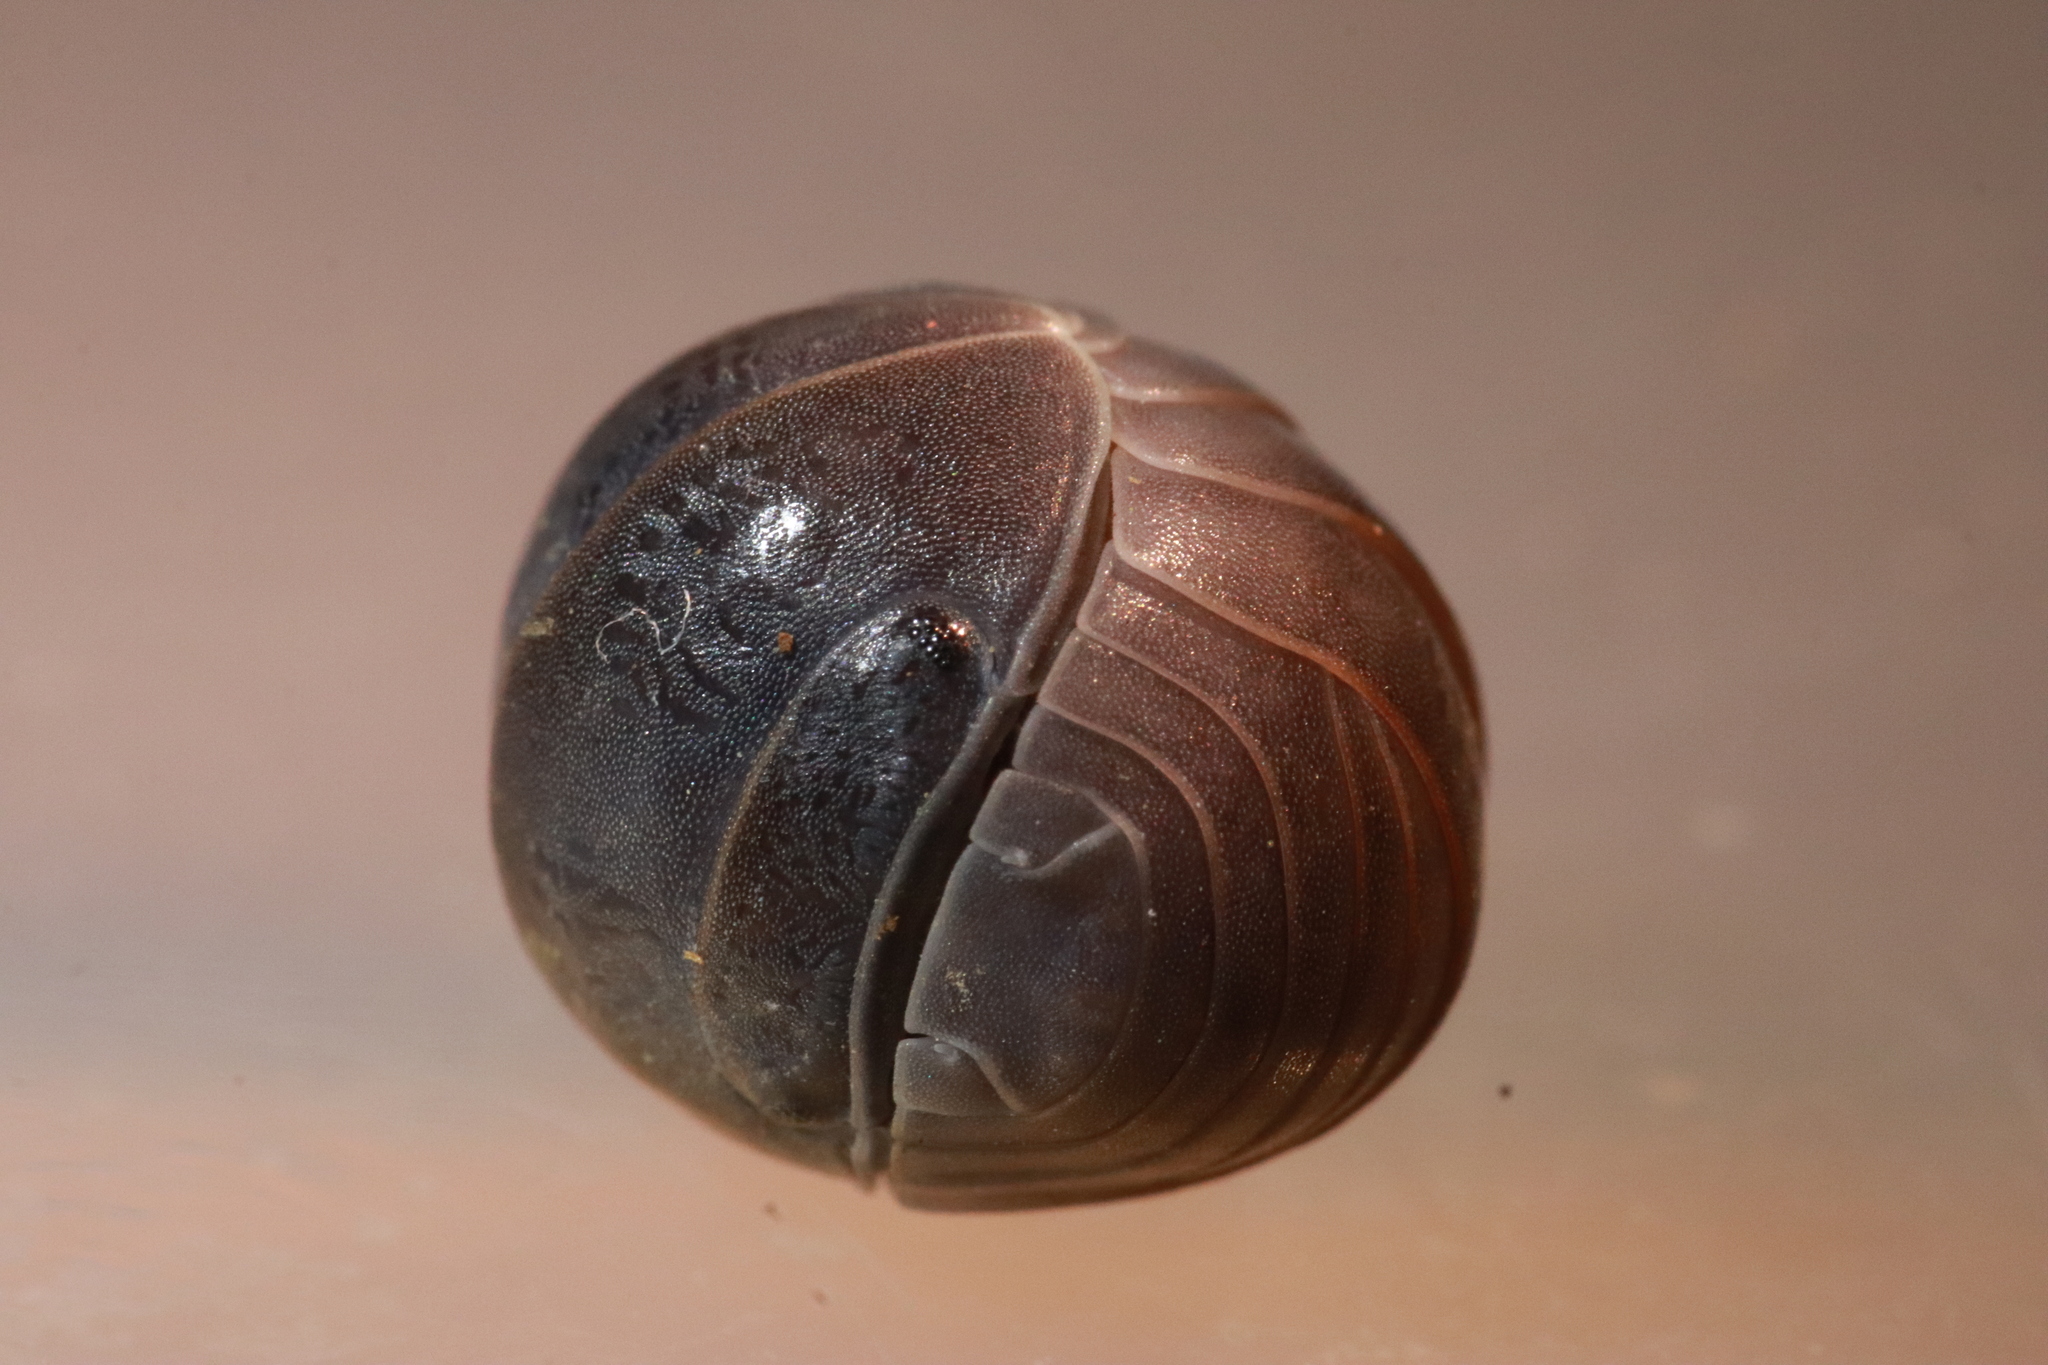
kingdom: Animalia
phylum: Arthropoda
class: Malacostraca
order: Isopoda
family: Armadillidae
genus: Armadillo
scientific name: Armadillo officinalis
